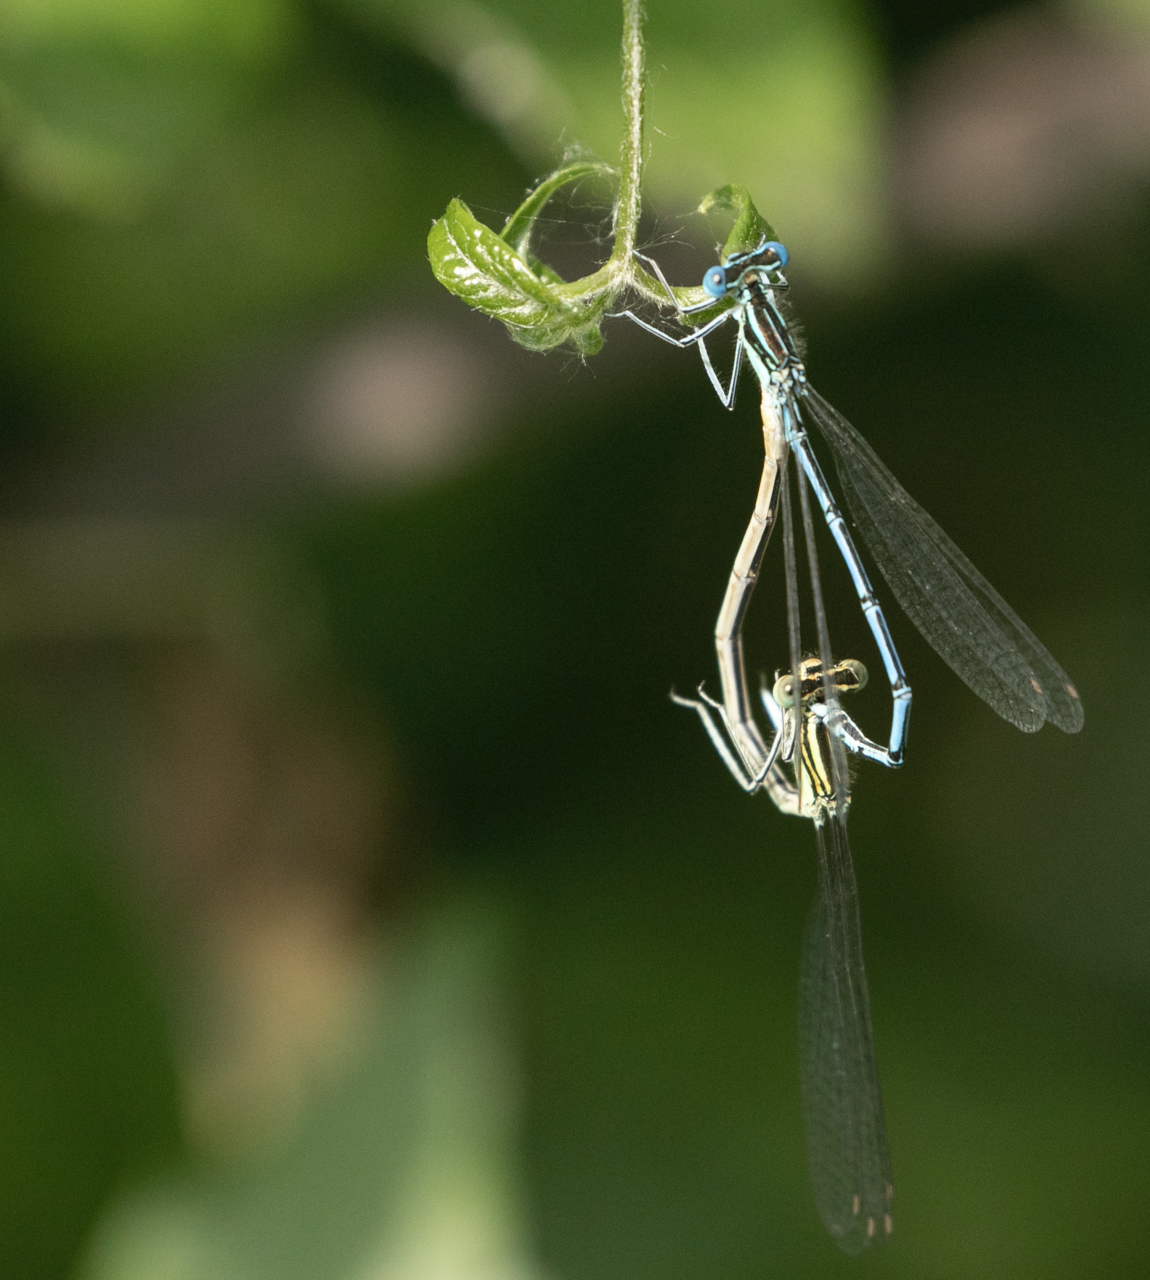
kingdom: Animalia
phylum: Arthropoda
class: Insecta
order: Odonata
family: Platycnemididae
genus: Platycnemis
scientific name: Platycnemis pennipes
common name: White-legged damselfly
